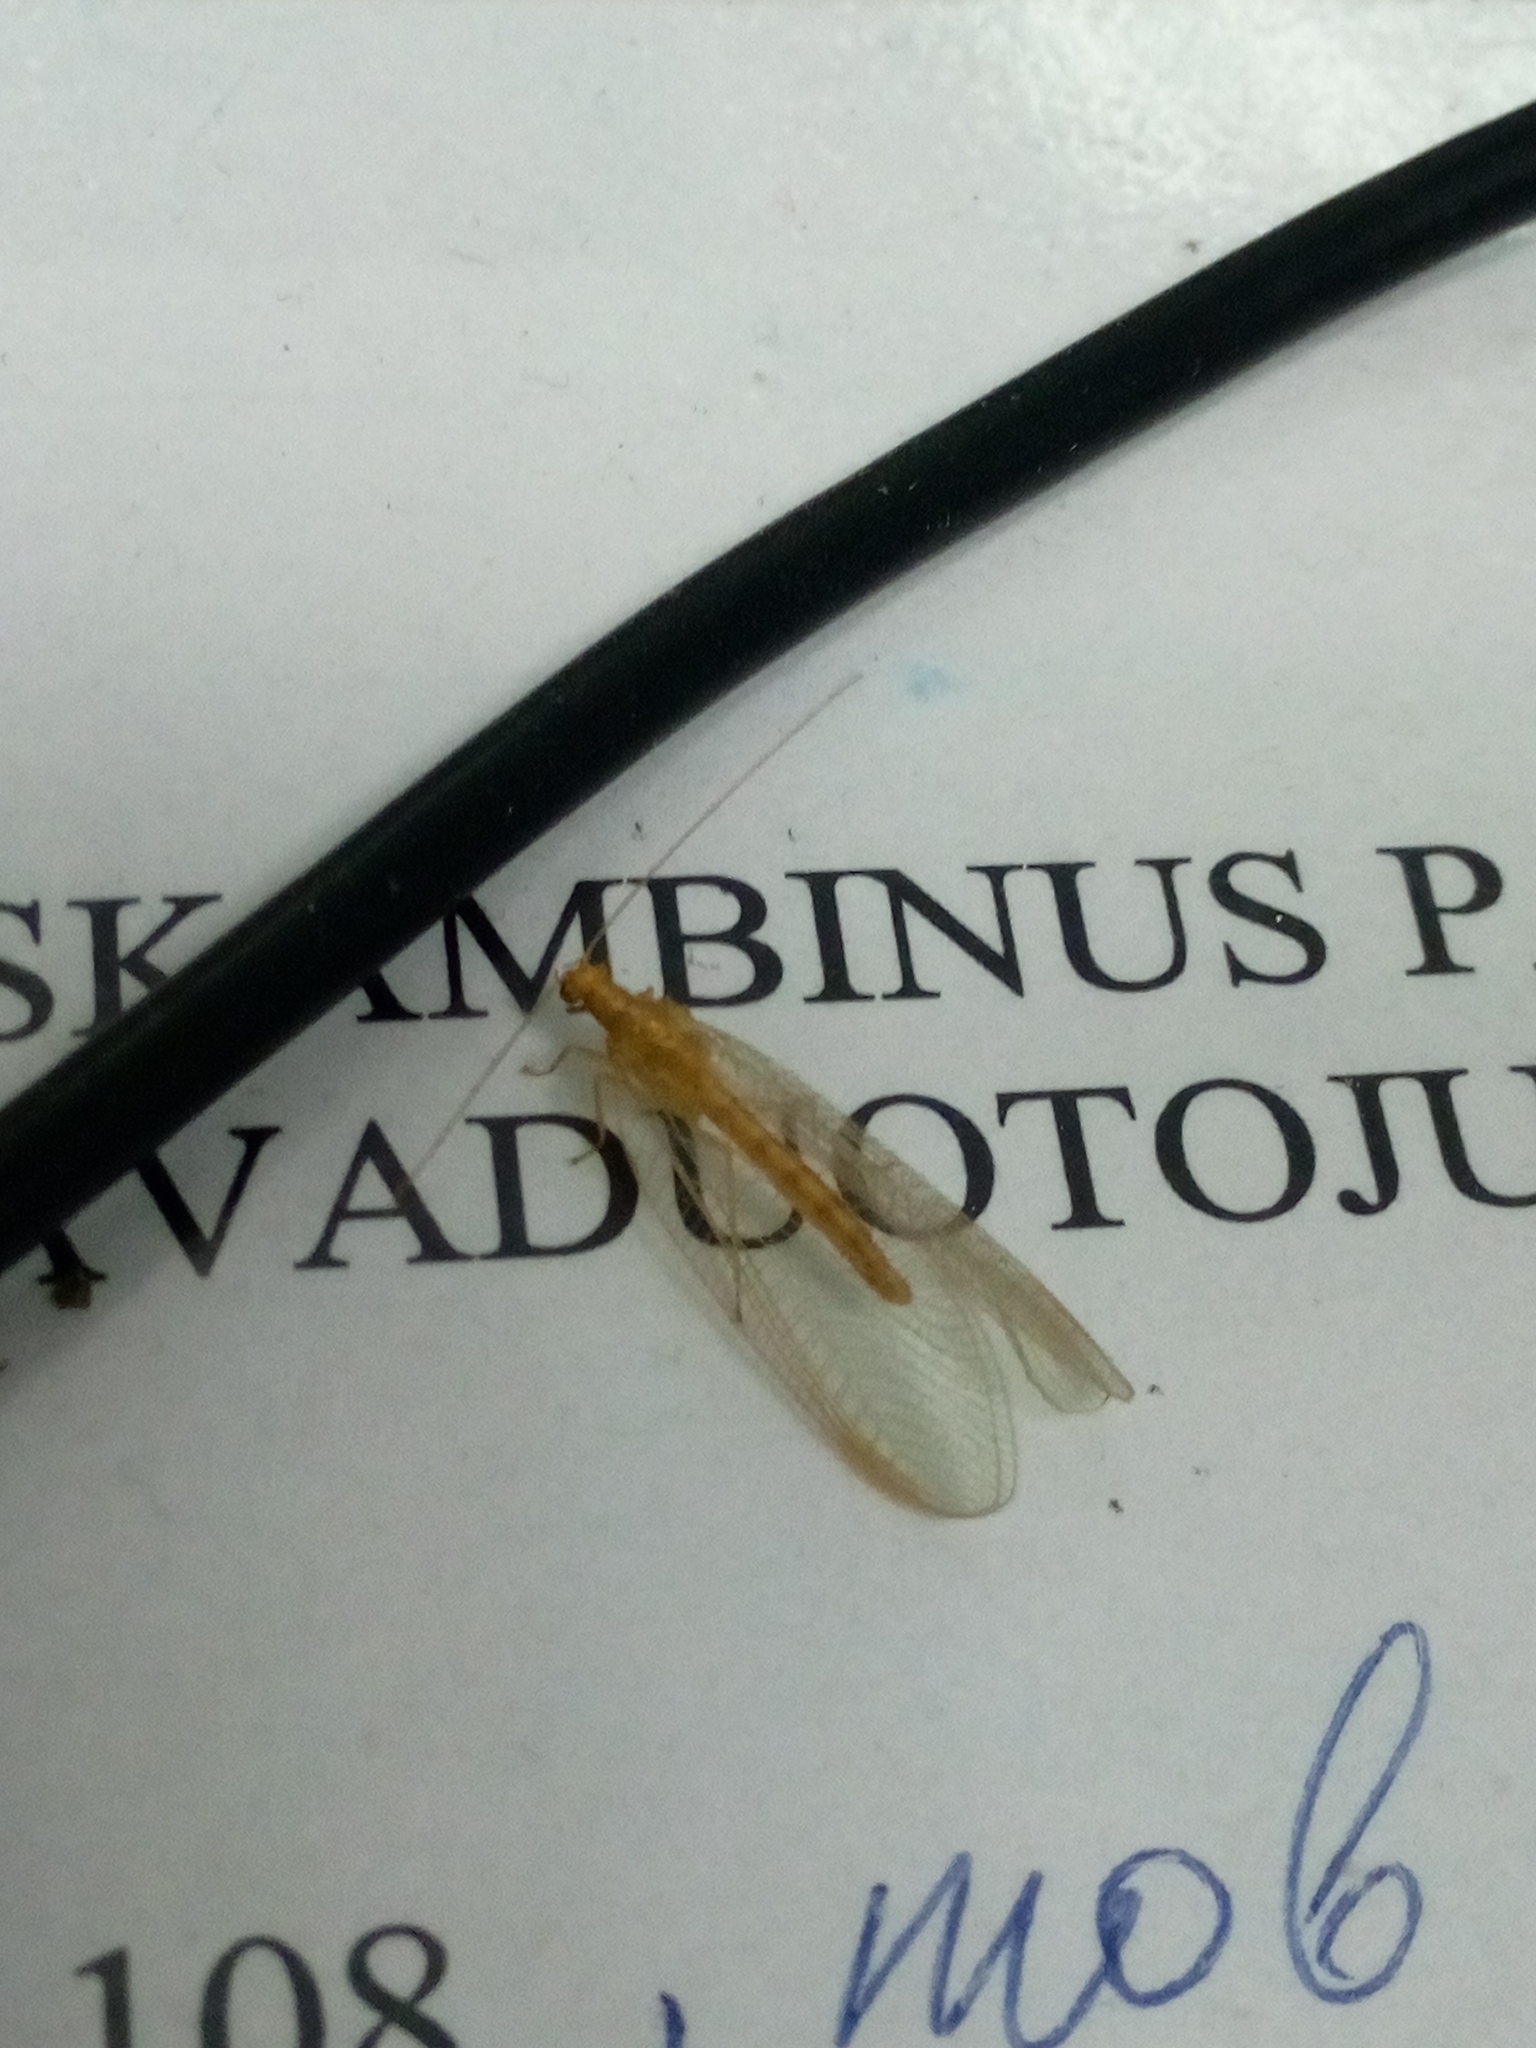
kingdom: Animalia
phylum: Arthropoda
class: Insecta
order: Neuroptera
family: Chrysopidae
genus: Chrysoperla
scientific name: Chrysoperla
